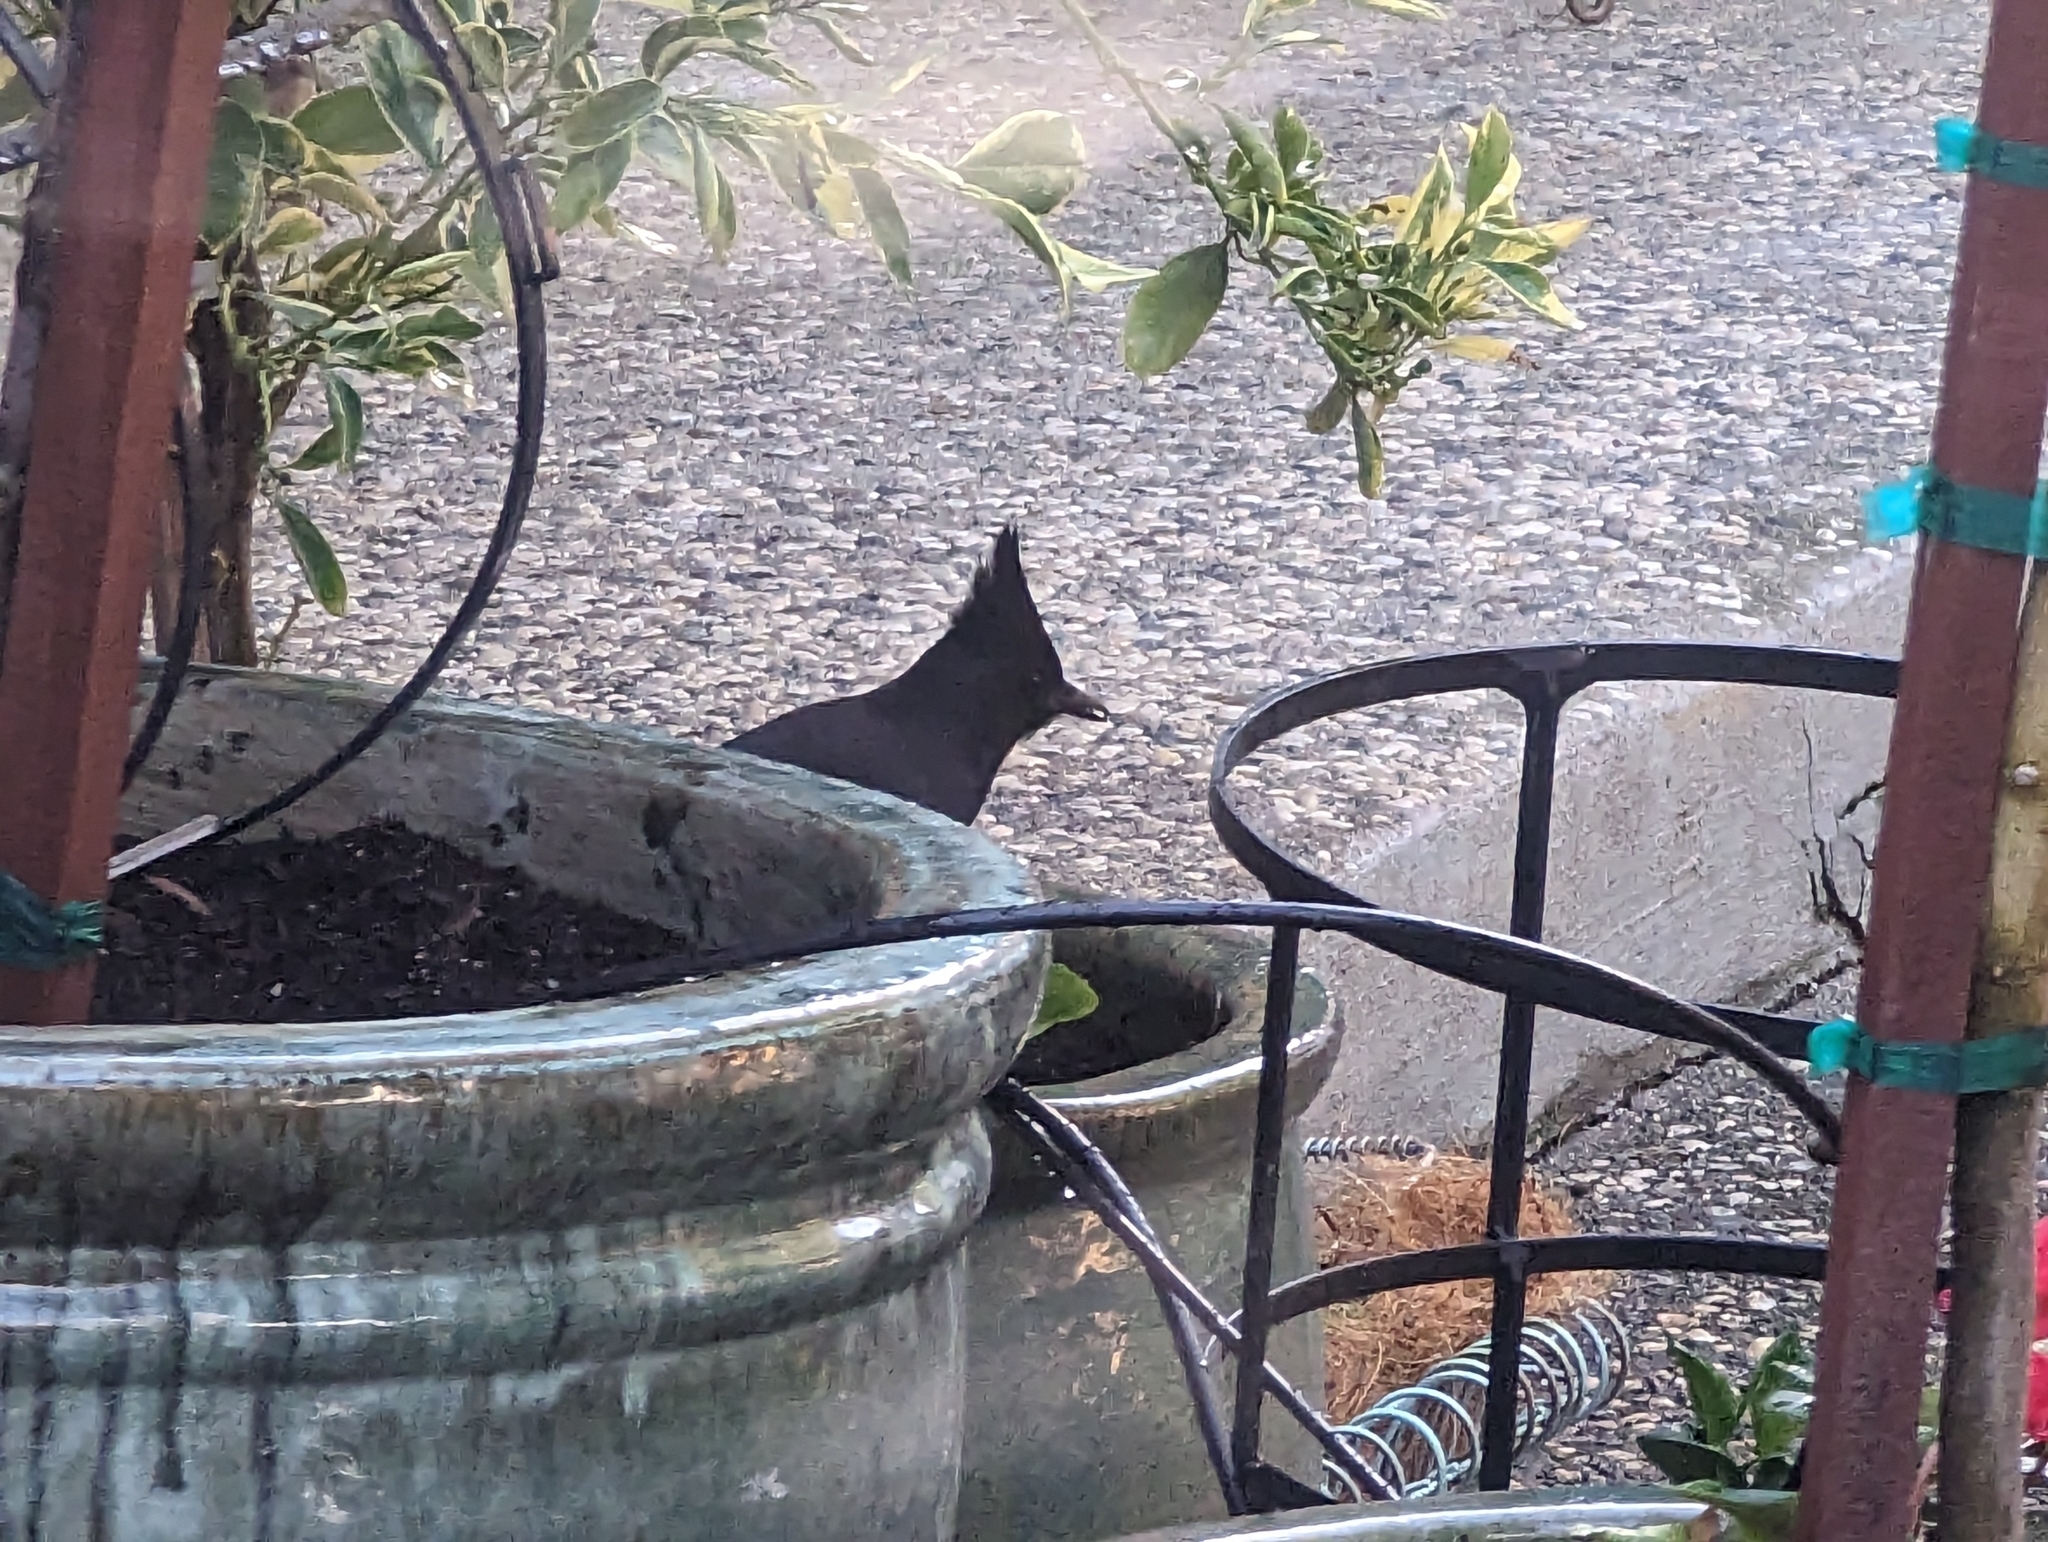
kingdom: Animalia
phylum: Chordata
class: Aves
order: Passeriformes
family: Corvidae
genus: Cyanocitta
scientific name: Cyanocitta stelleri
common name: Steller's jay
